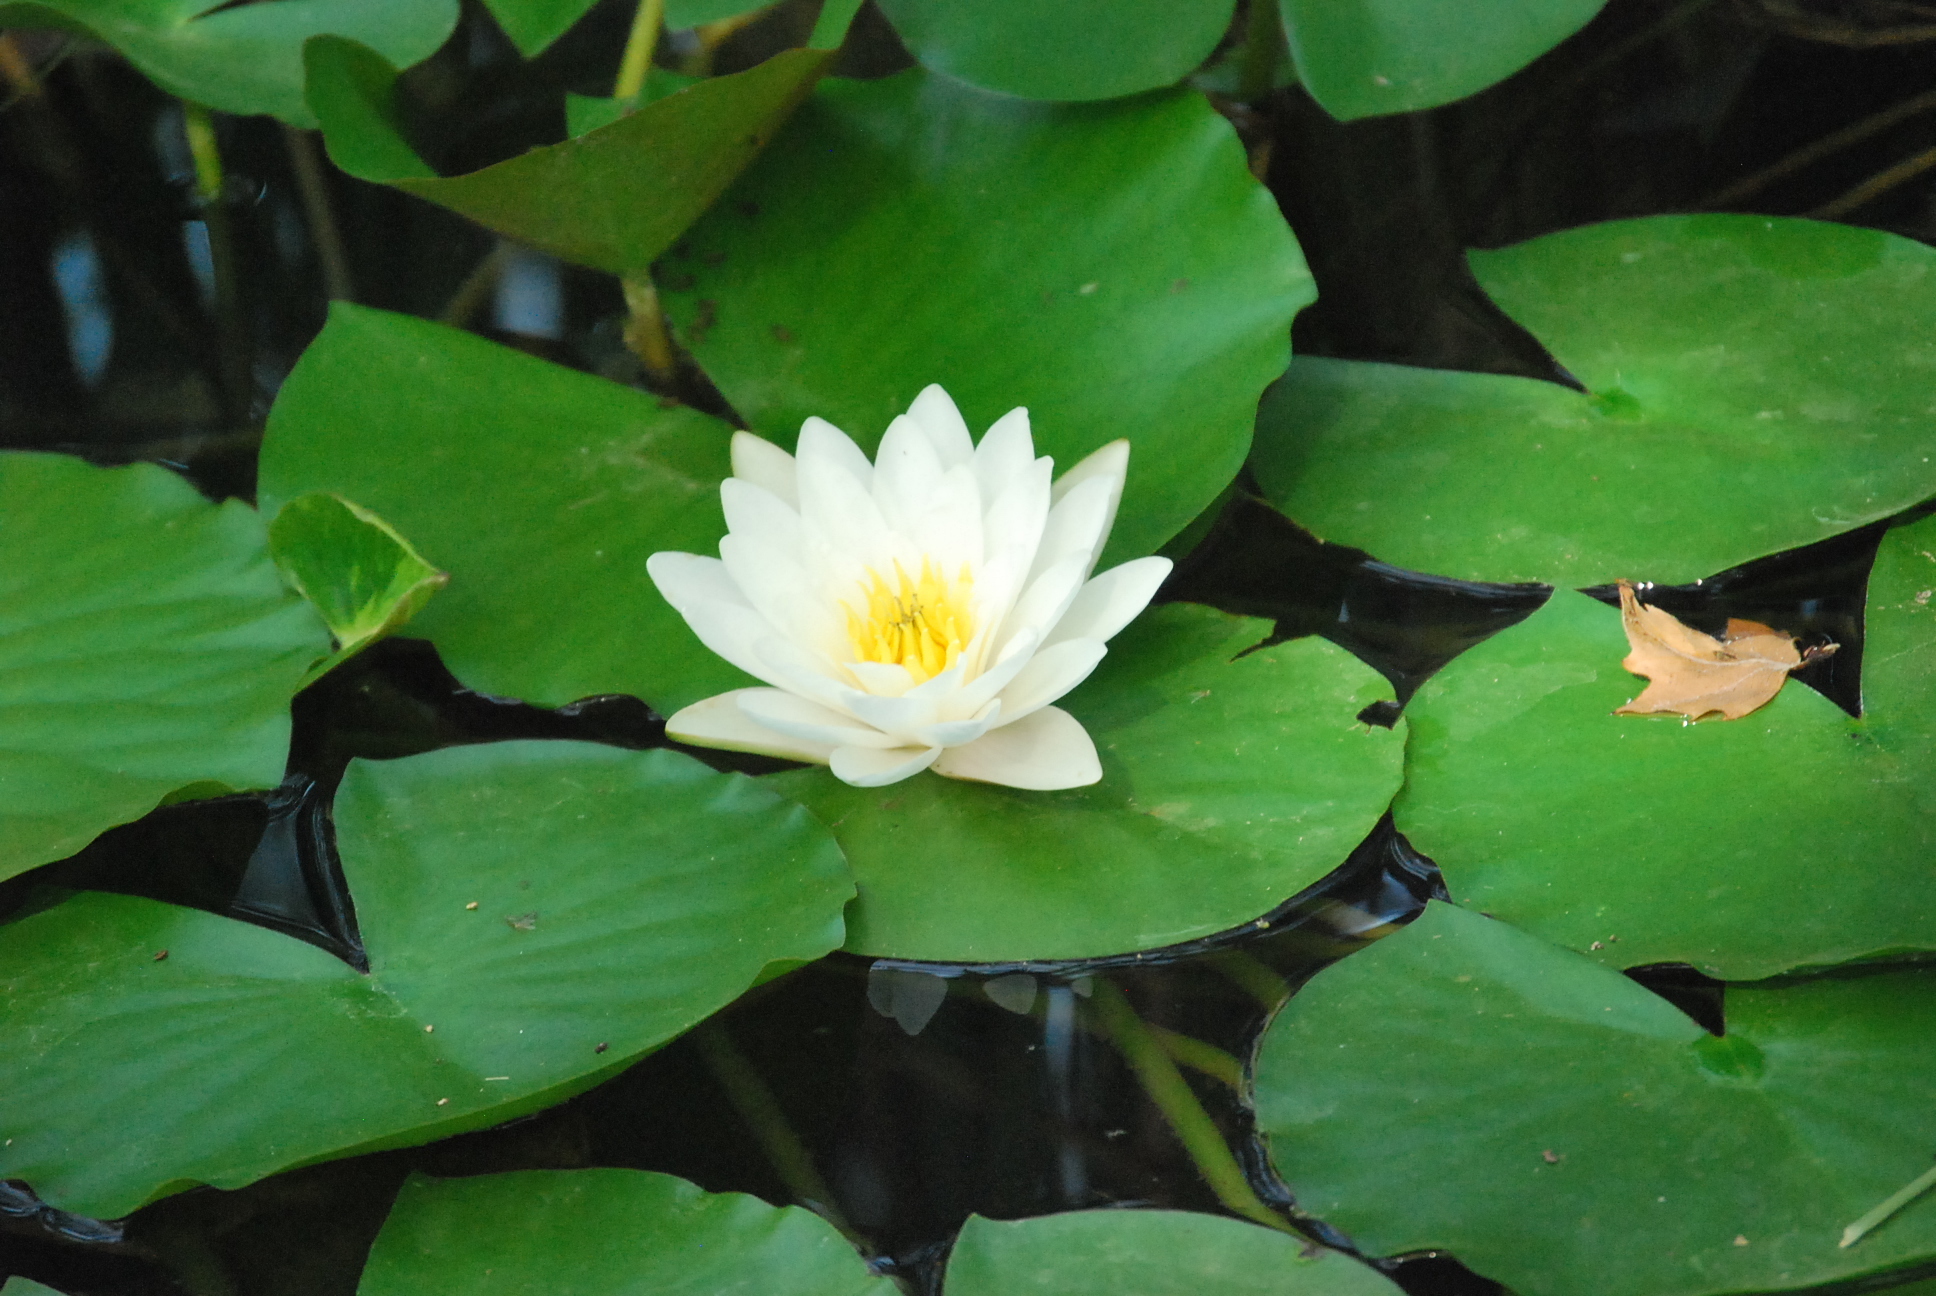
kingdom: Plantae
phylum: Tracheophyta
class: Magnoliopsida
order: Nymphaeales
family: Nymphaeaceae
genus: Nymphaea
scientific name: Nymphaea alba
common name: White water-lily
